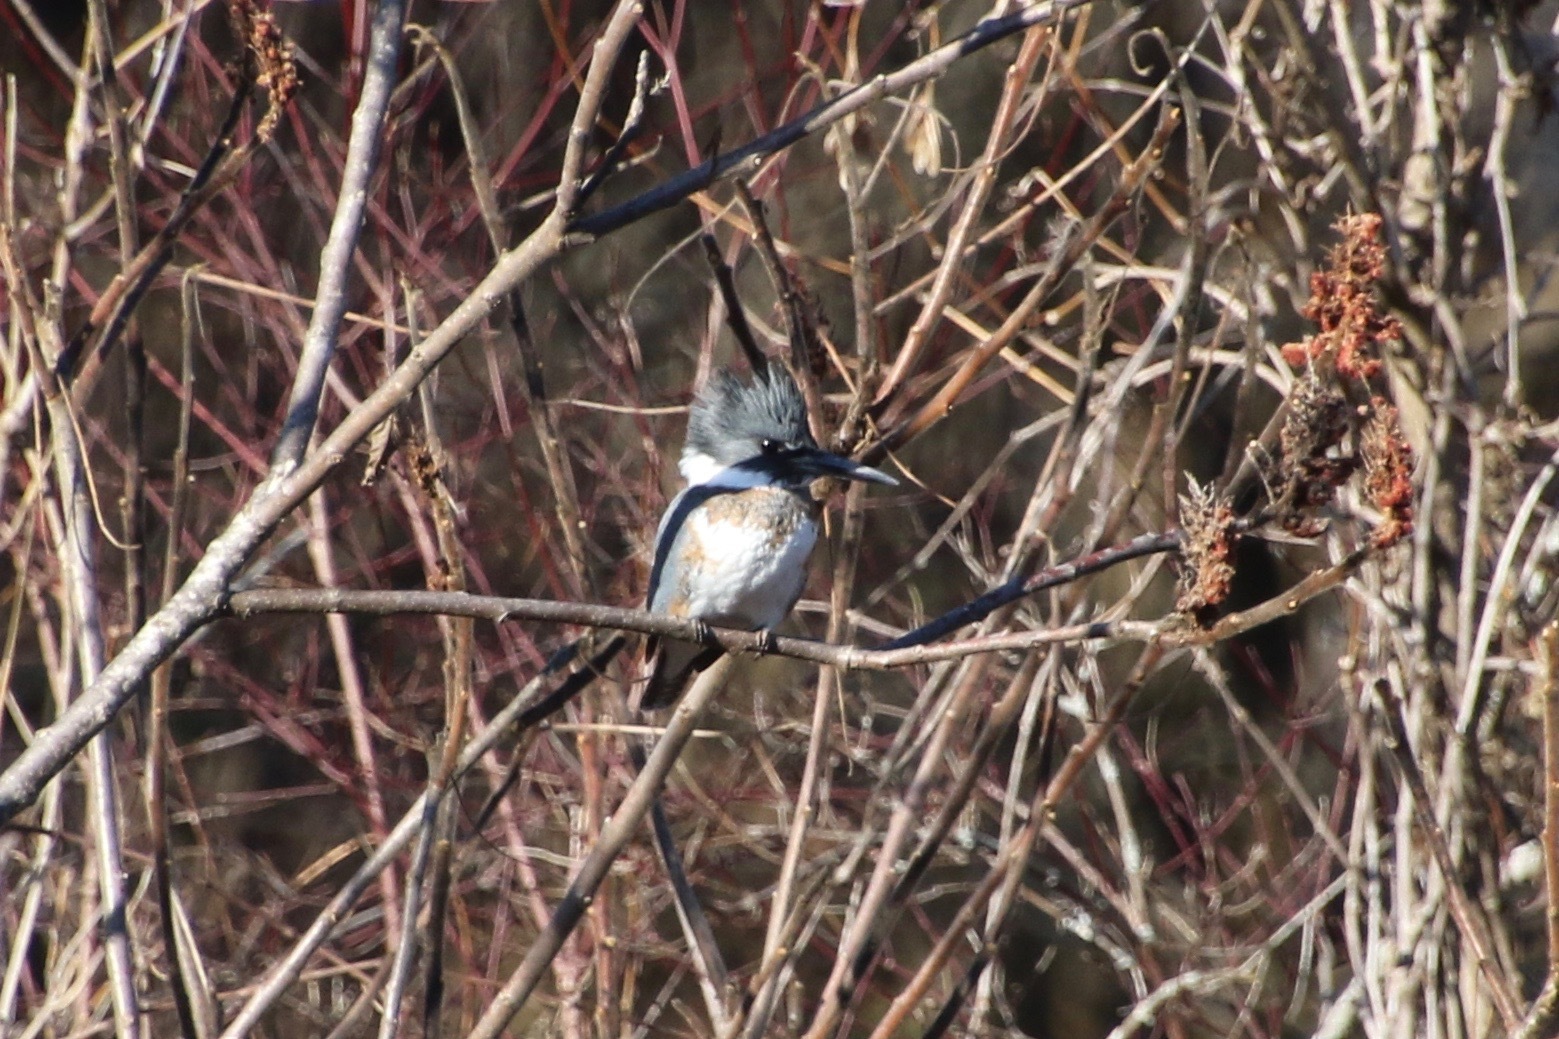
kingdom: Animalia
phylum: Chordata
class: Aves
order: Coraciiformes
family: Alcedinidae
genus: Megaceryle
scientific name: Megaceryle alcyon
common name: Belted kingfisher
